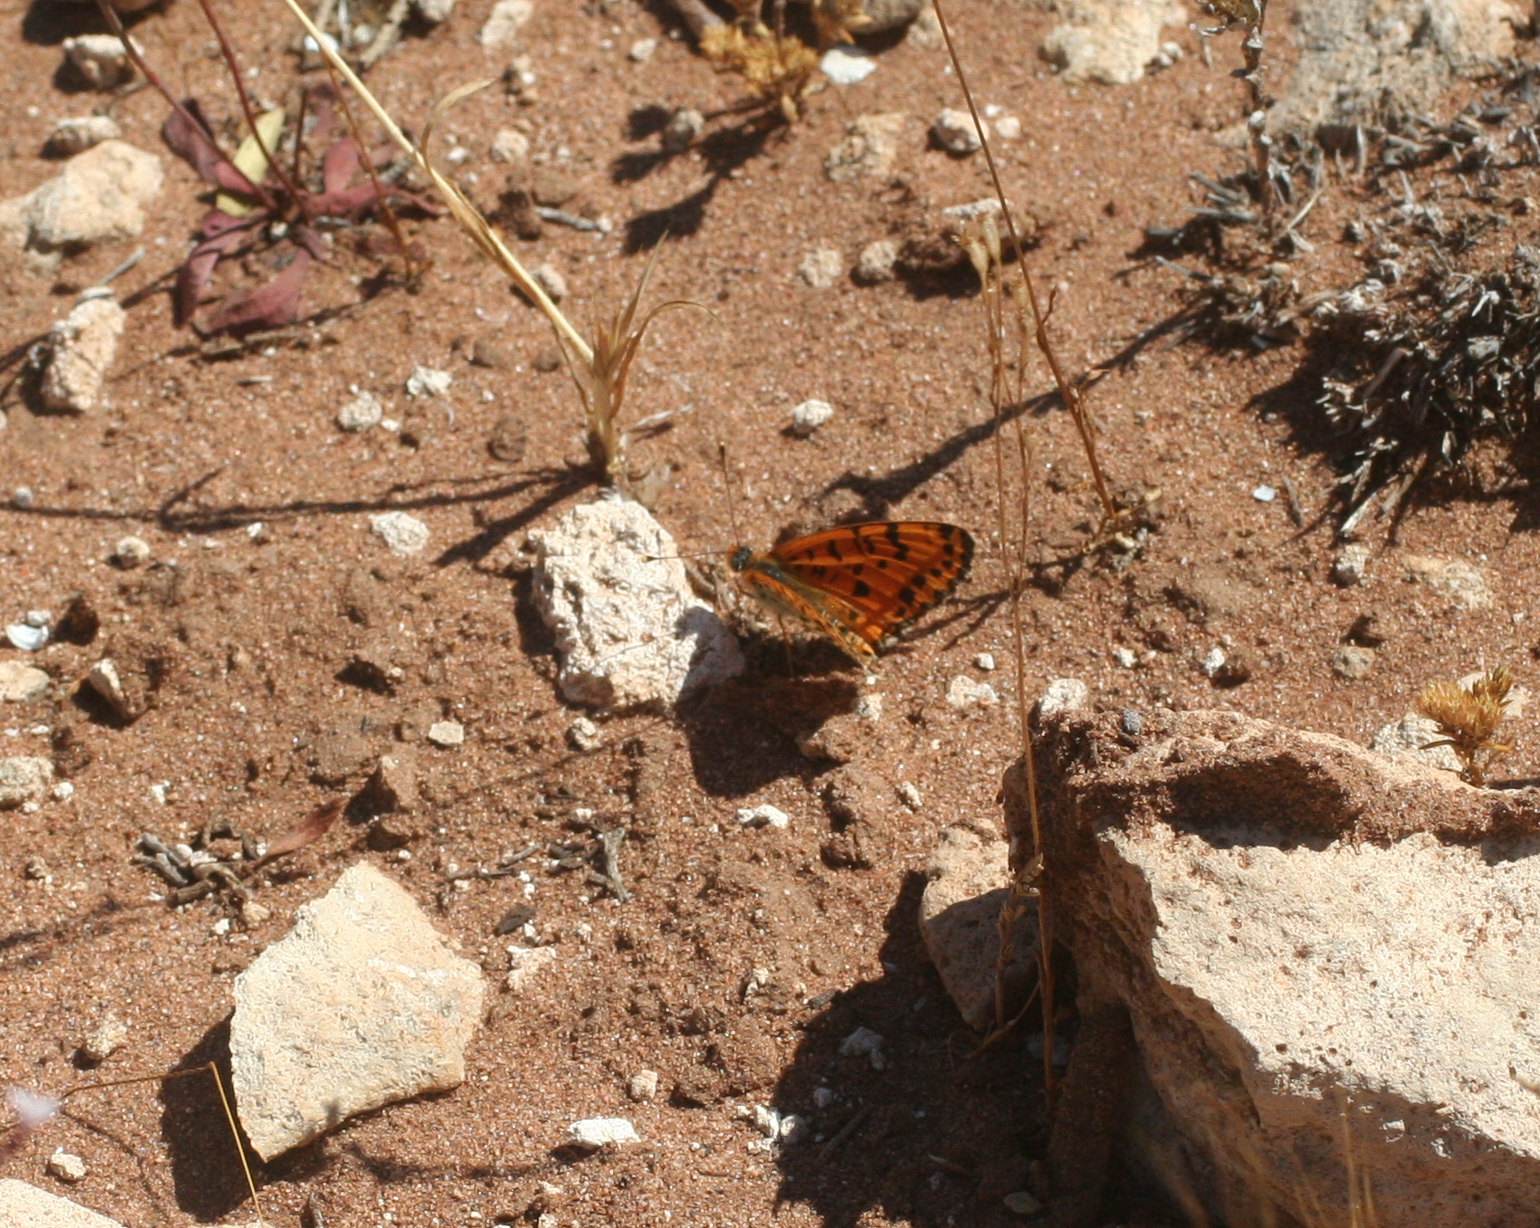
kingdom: Animalia
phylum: Arthropoda
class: Insecta
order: Lepidoptera
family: Nymphalidae
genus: Melitaea
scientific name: Melitaea didyma
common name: Spotted fritillary
